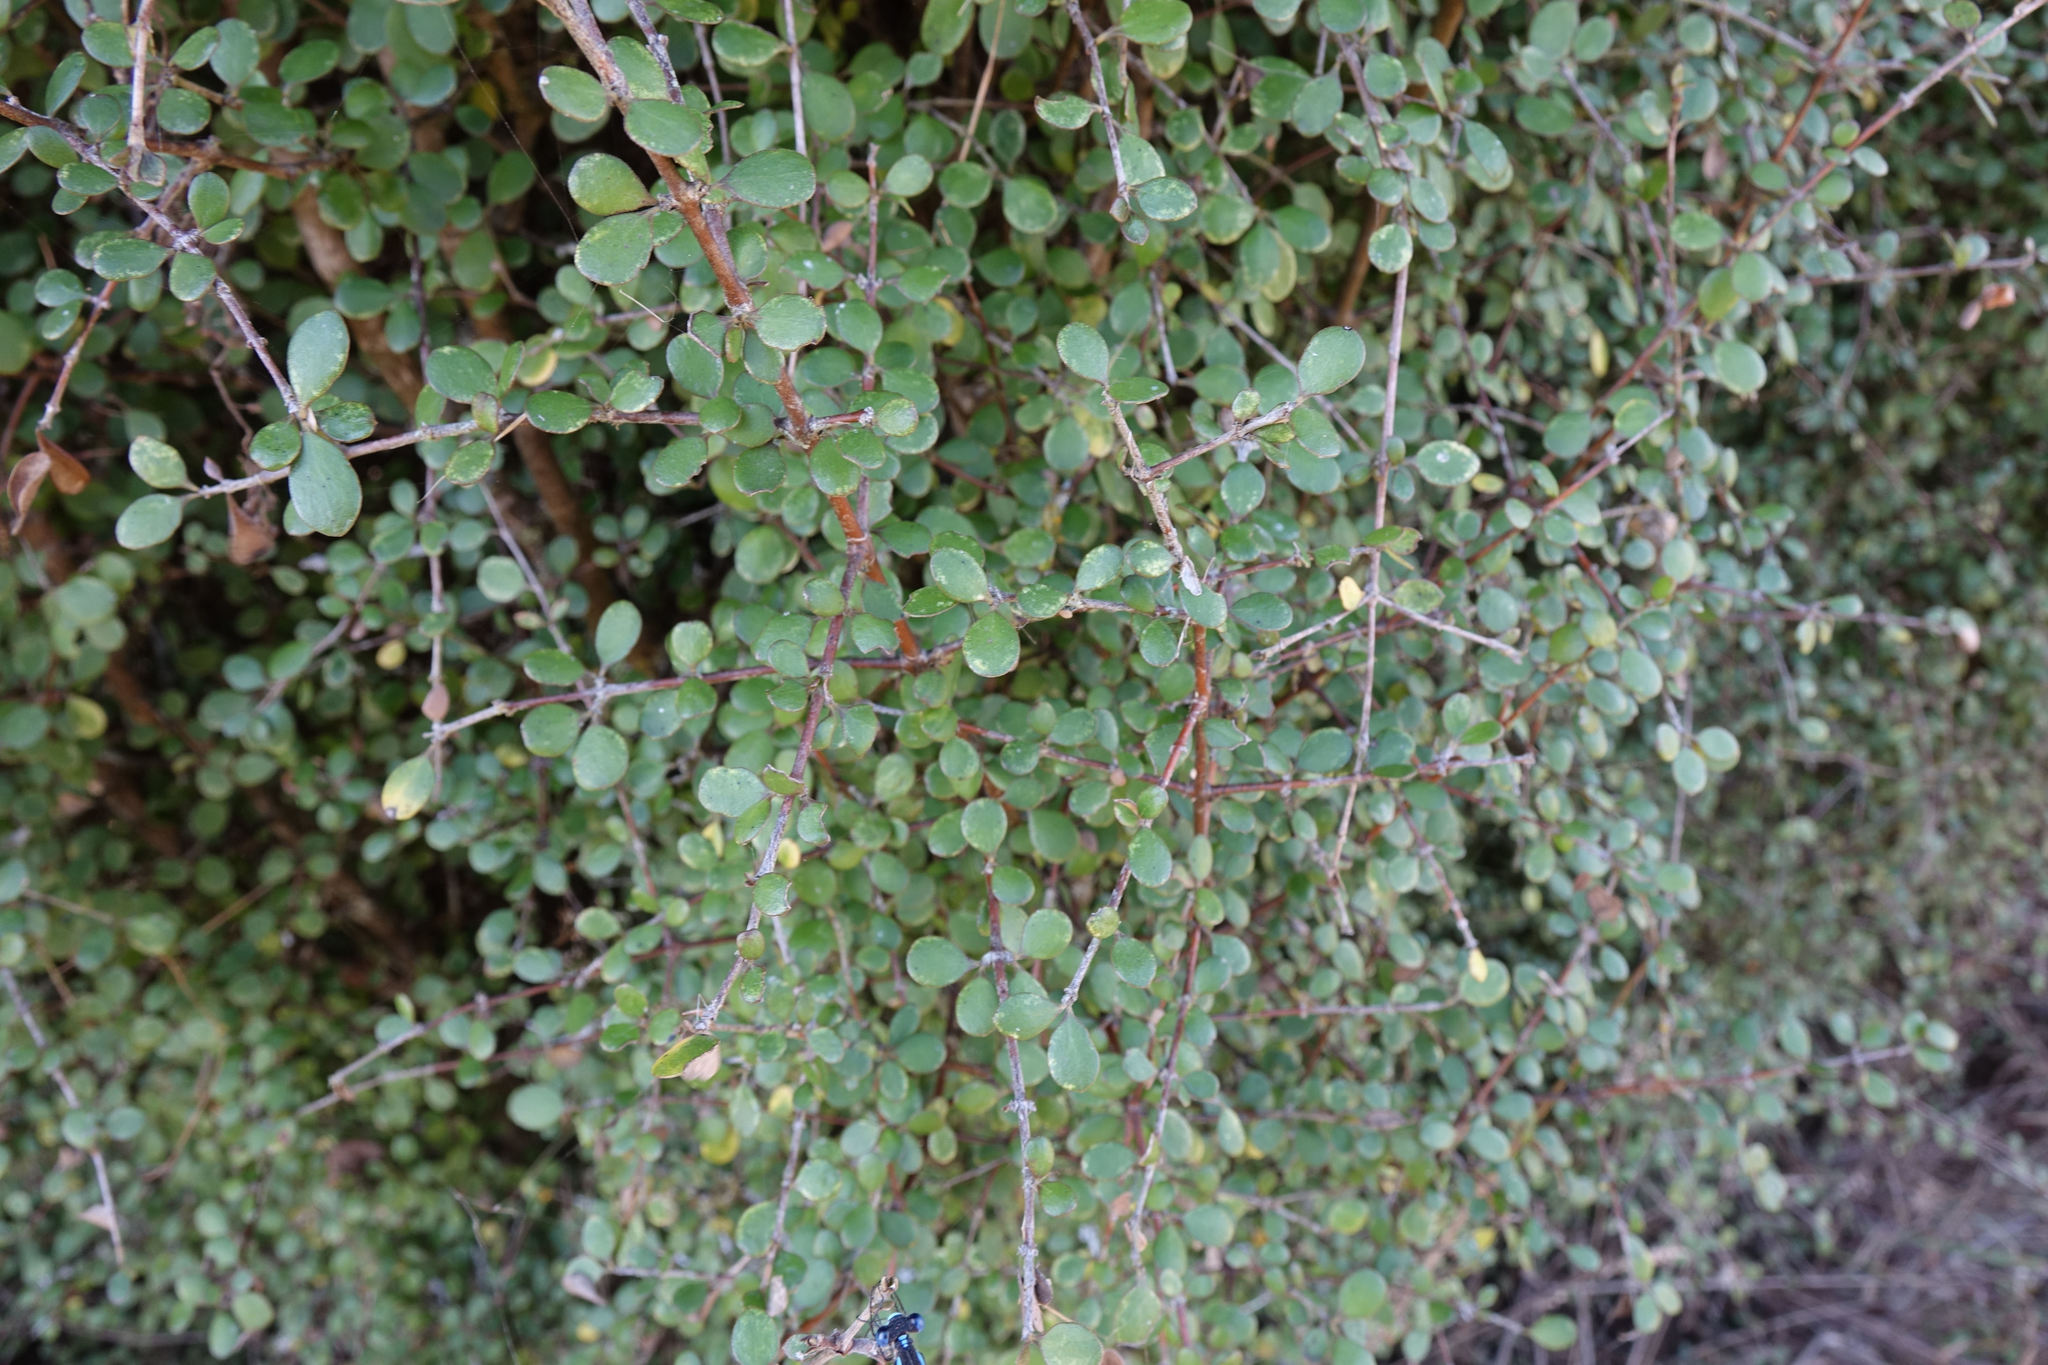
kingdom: Plantae
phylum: Tracheophyta
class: Magnoliopsida
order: Gentianales
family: Rubiaceae
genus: Coprosma
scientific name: Coprosma crassifolia
